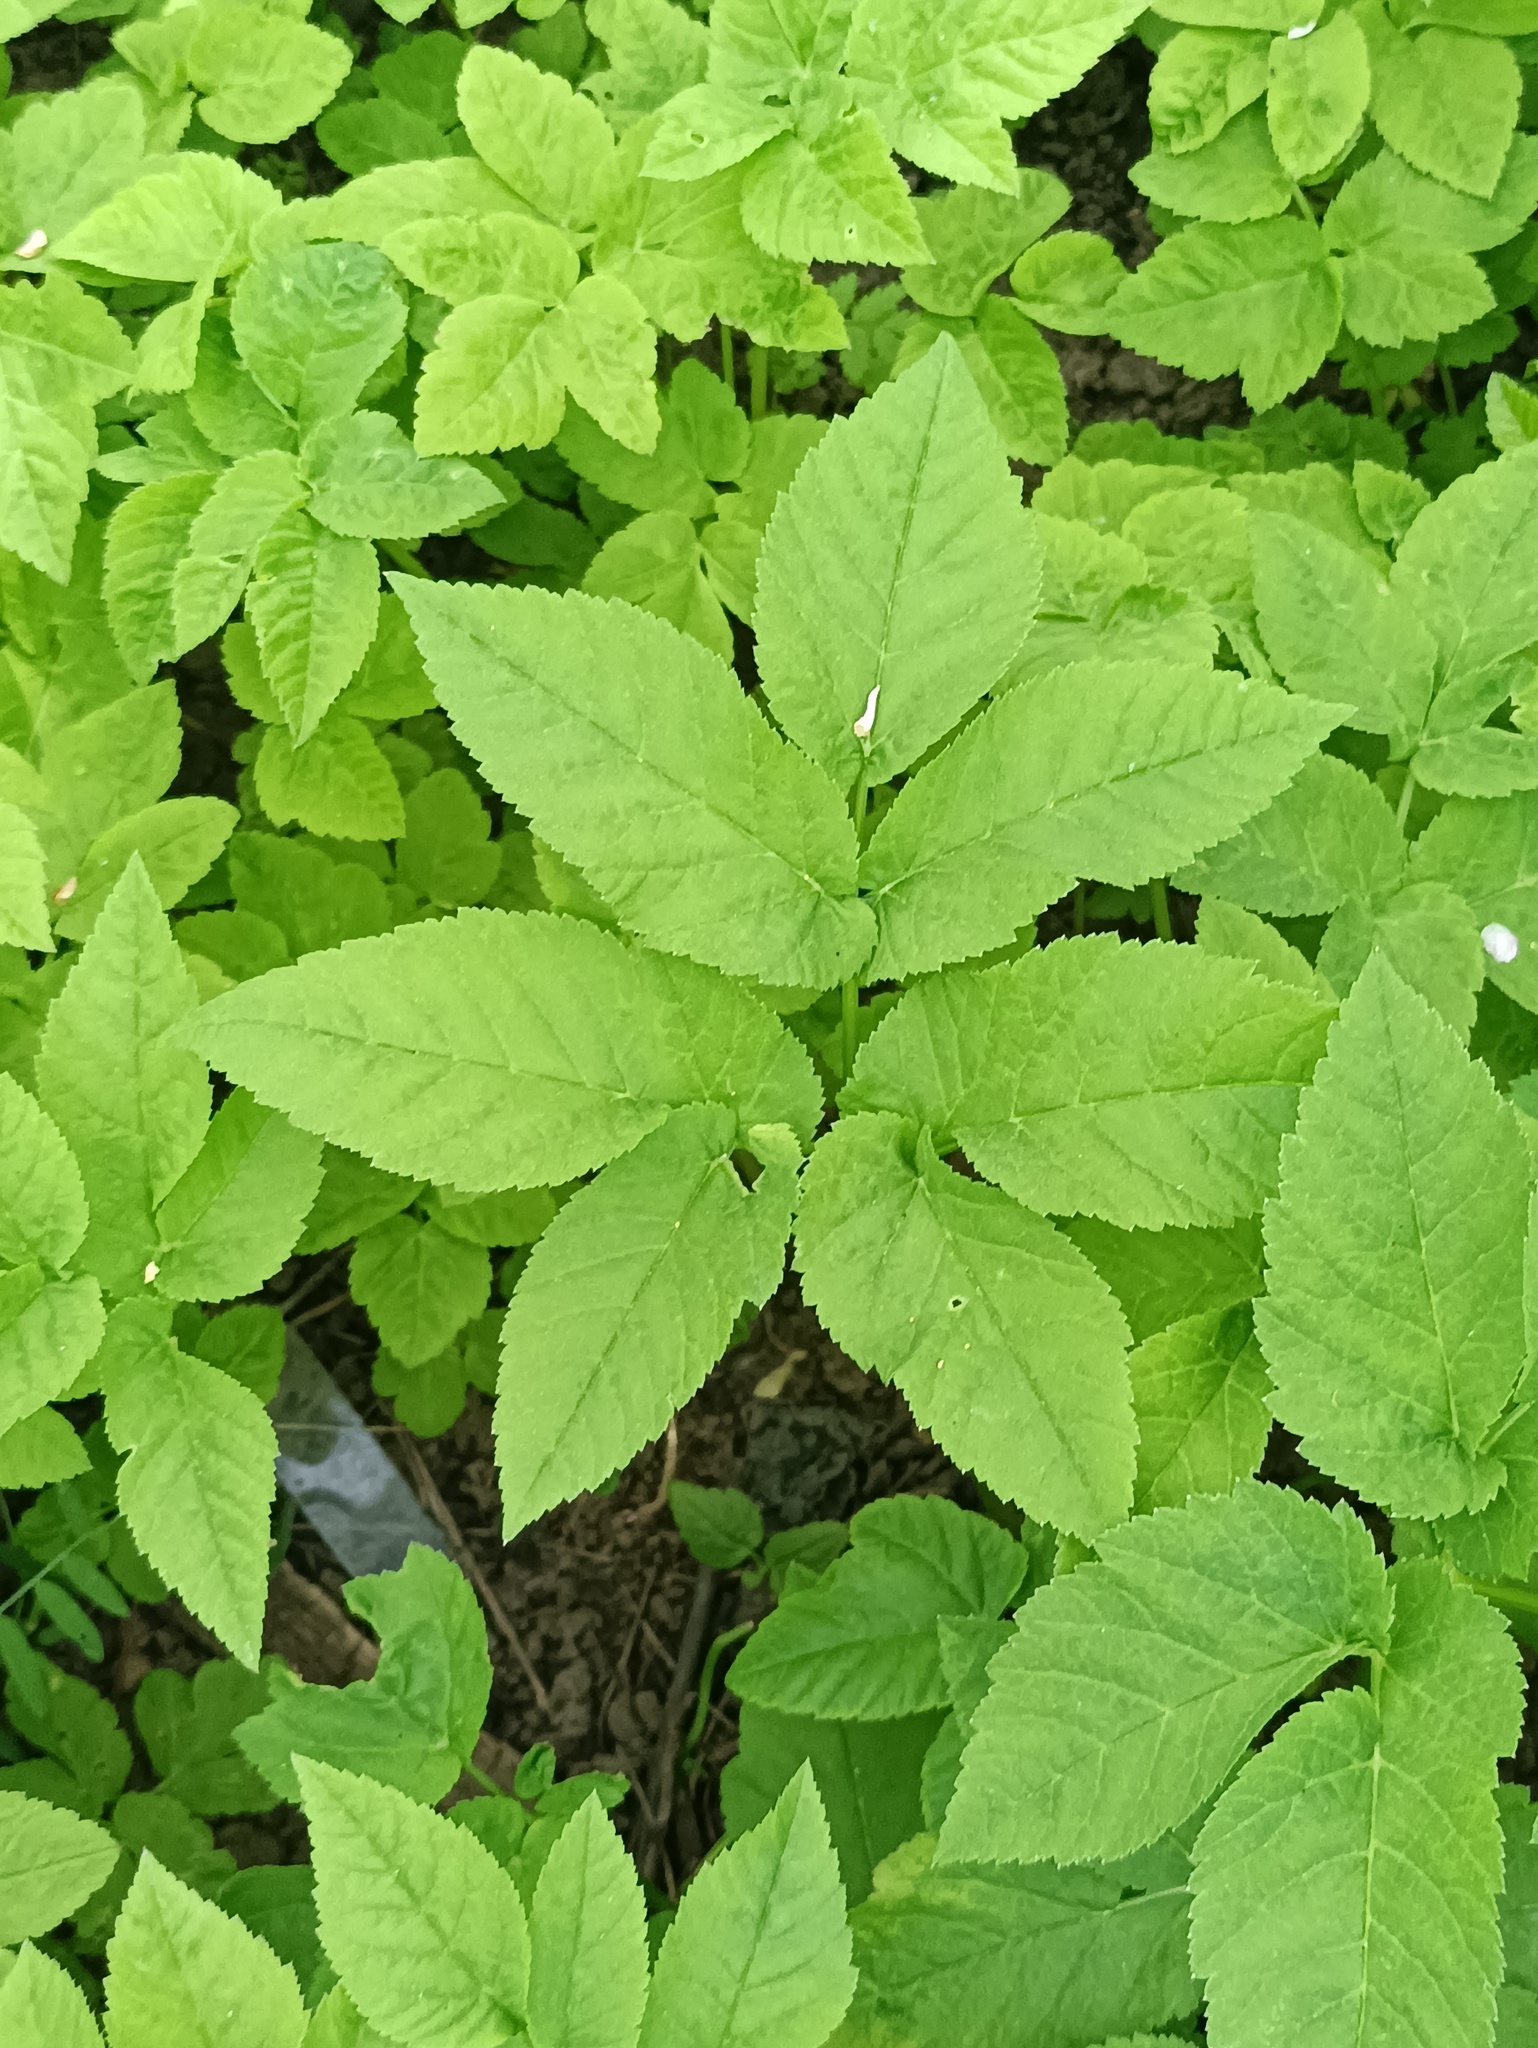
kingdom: Plantae
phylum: Tracheophyta
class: Magnoliopsida
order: Apiales
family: Apiaceae
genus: Aegopodium
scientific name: Aegopodium podagraria
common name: Ground-elder
